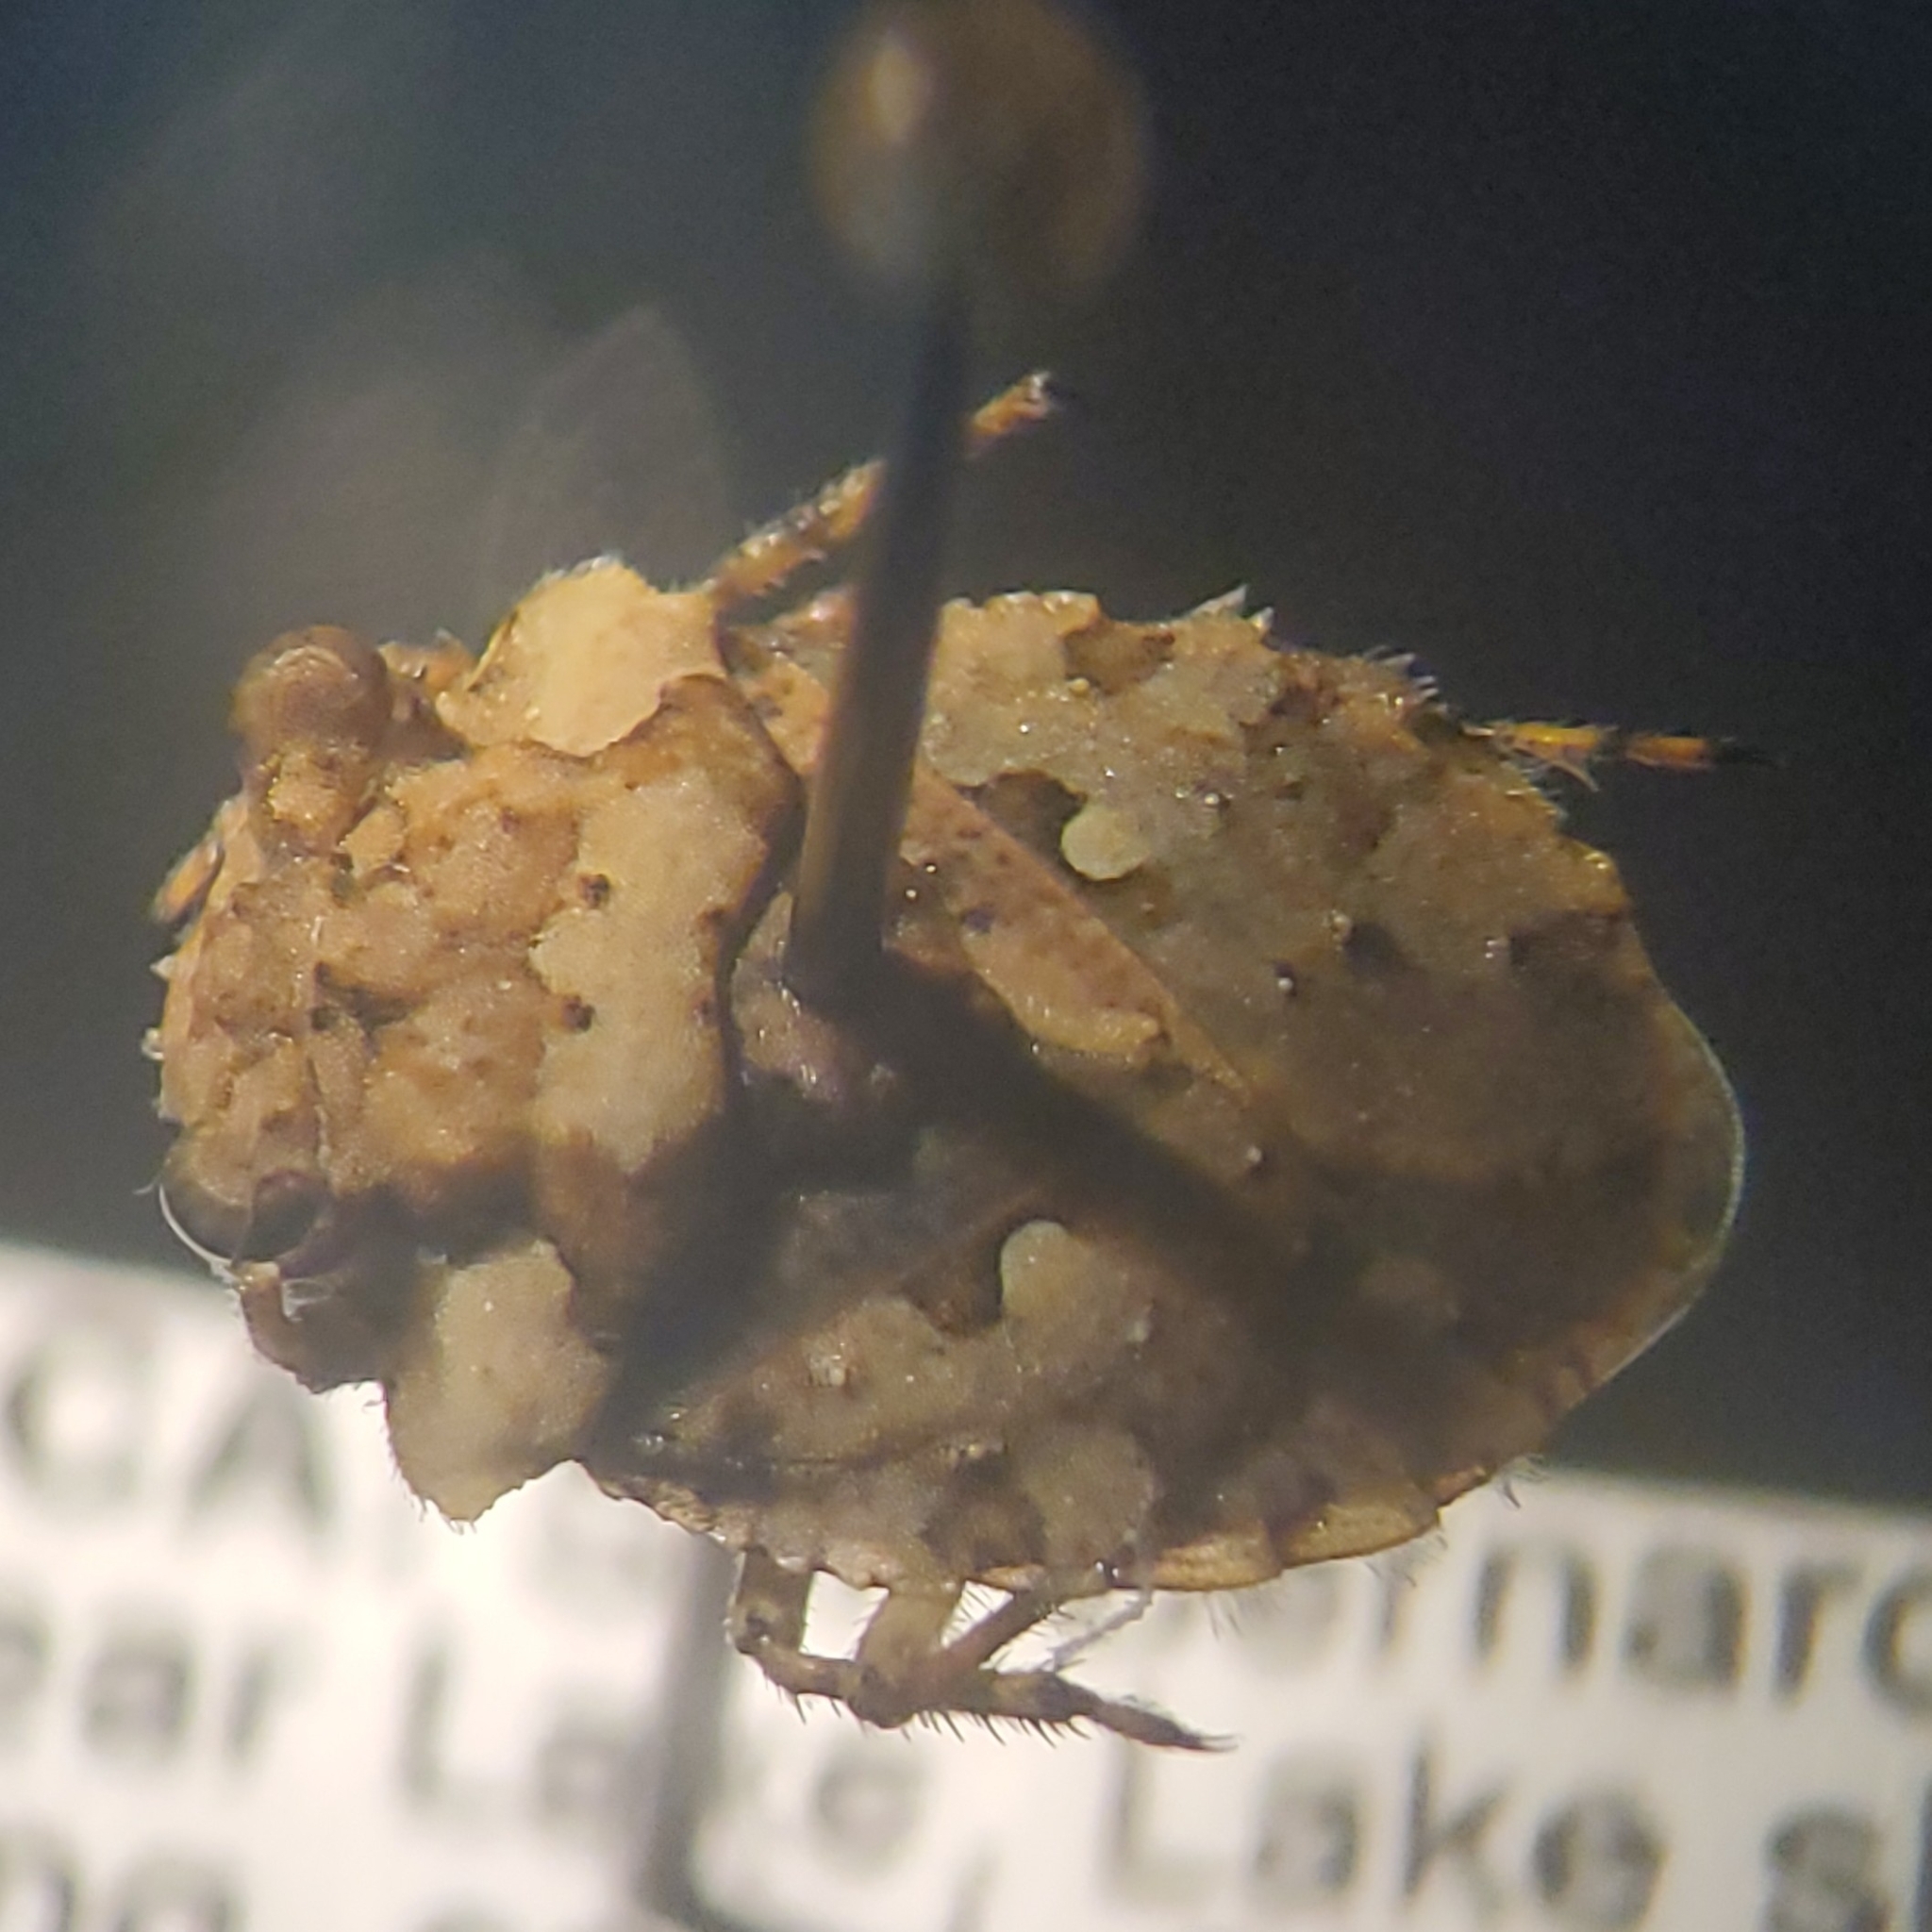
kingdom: Animalia
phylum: Arthropoda
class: Insecta
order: Hemiptera
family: Gelastocoridae
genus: Gelastocoris
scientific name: Gelastocoris oculatus
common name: Toad bug
